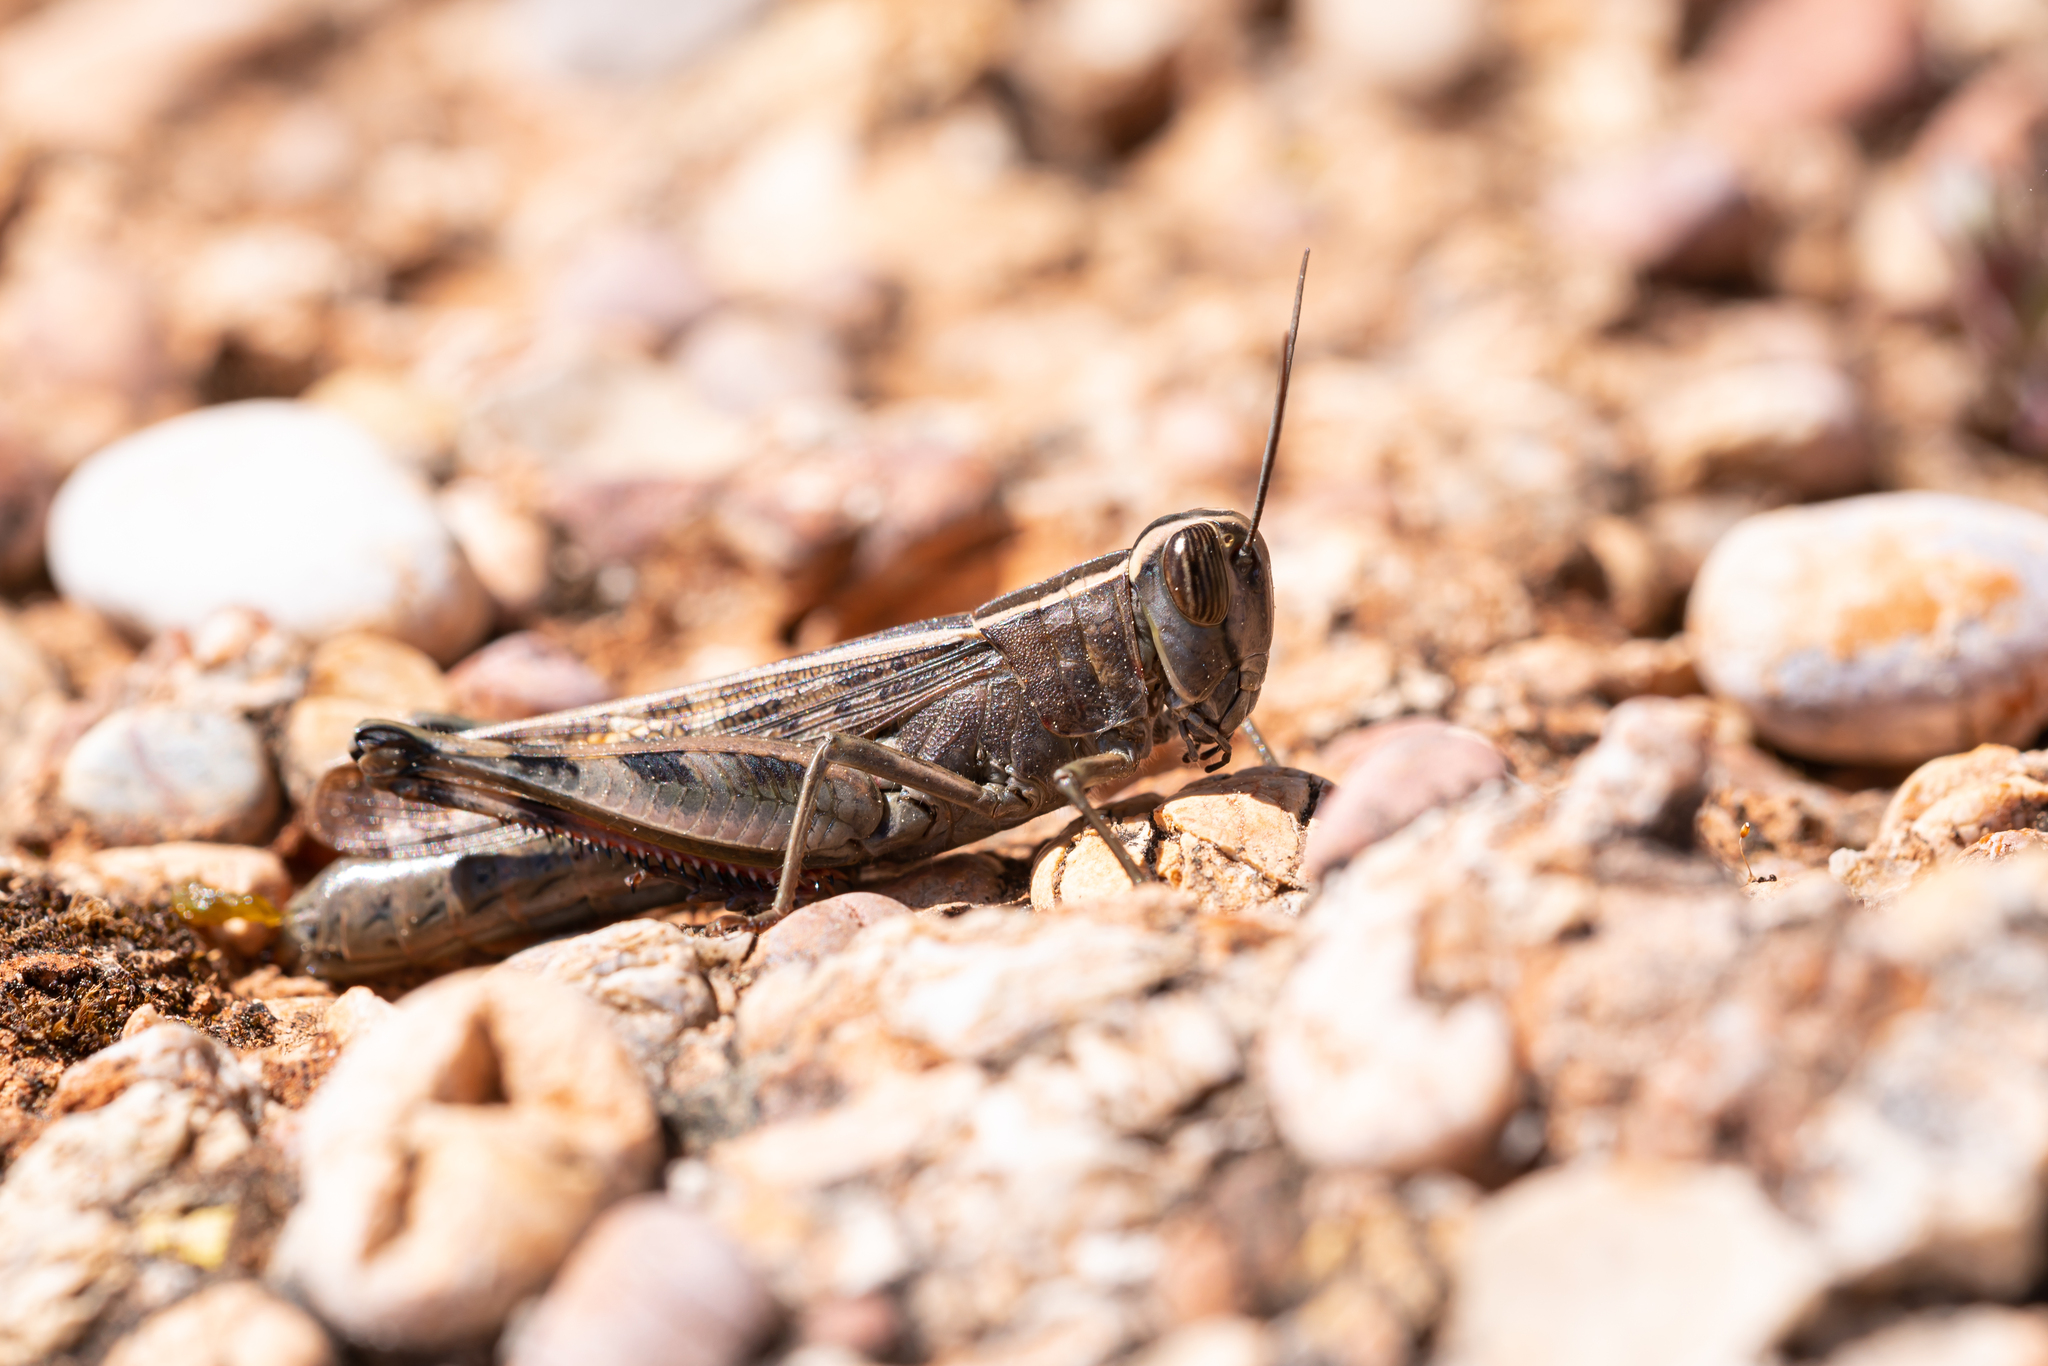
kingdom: Animalia
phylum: Arthropoda
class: Insecta
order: Orthoptera
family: Acrididae
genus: Heteracris
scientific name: Heteracris littoralis
